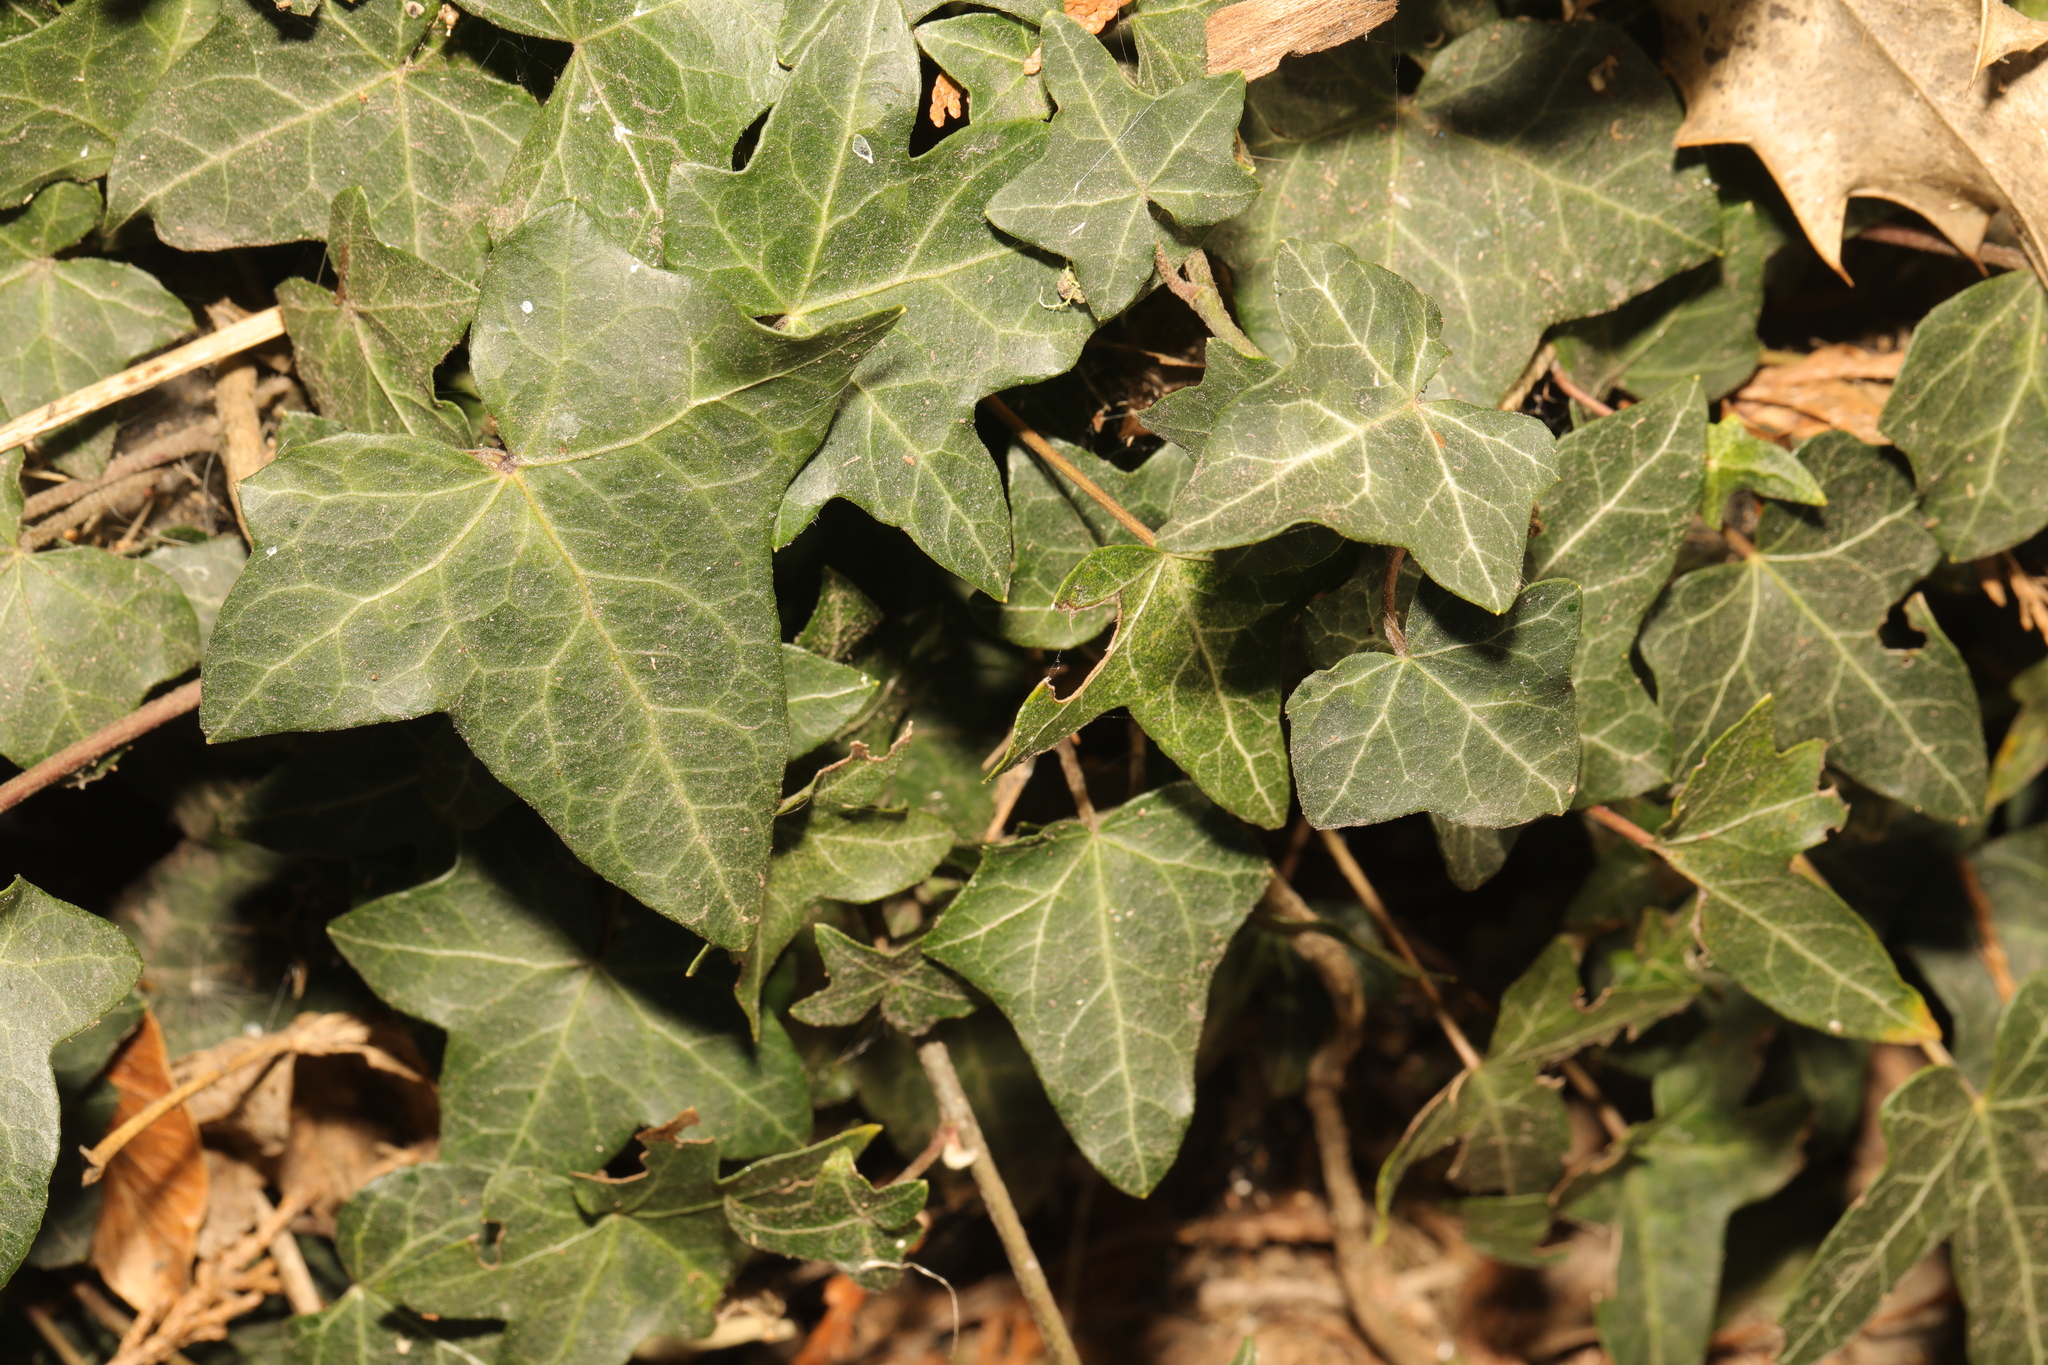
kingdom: Plantae
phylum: Tracheophyta
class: Magnoliopsida
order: Apiales
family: Araliaceae
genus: Hedera
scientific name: Hedera helix
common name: Ivy
